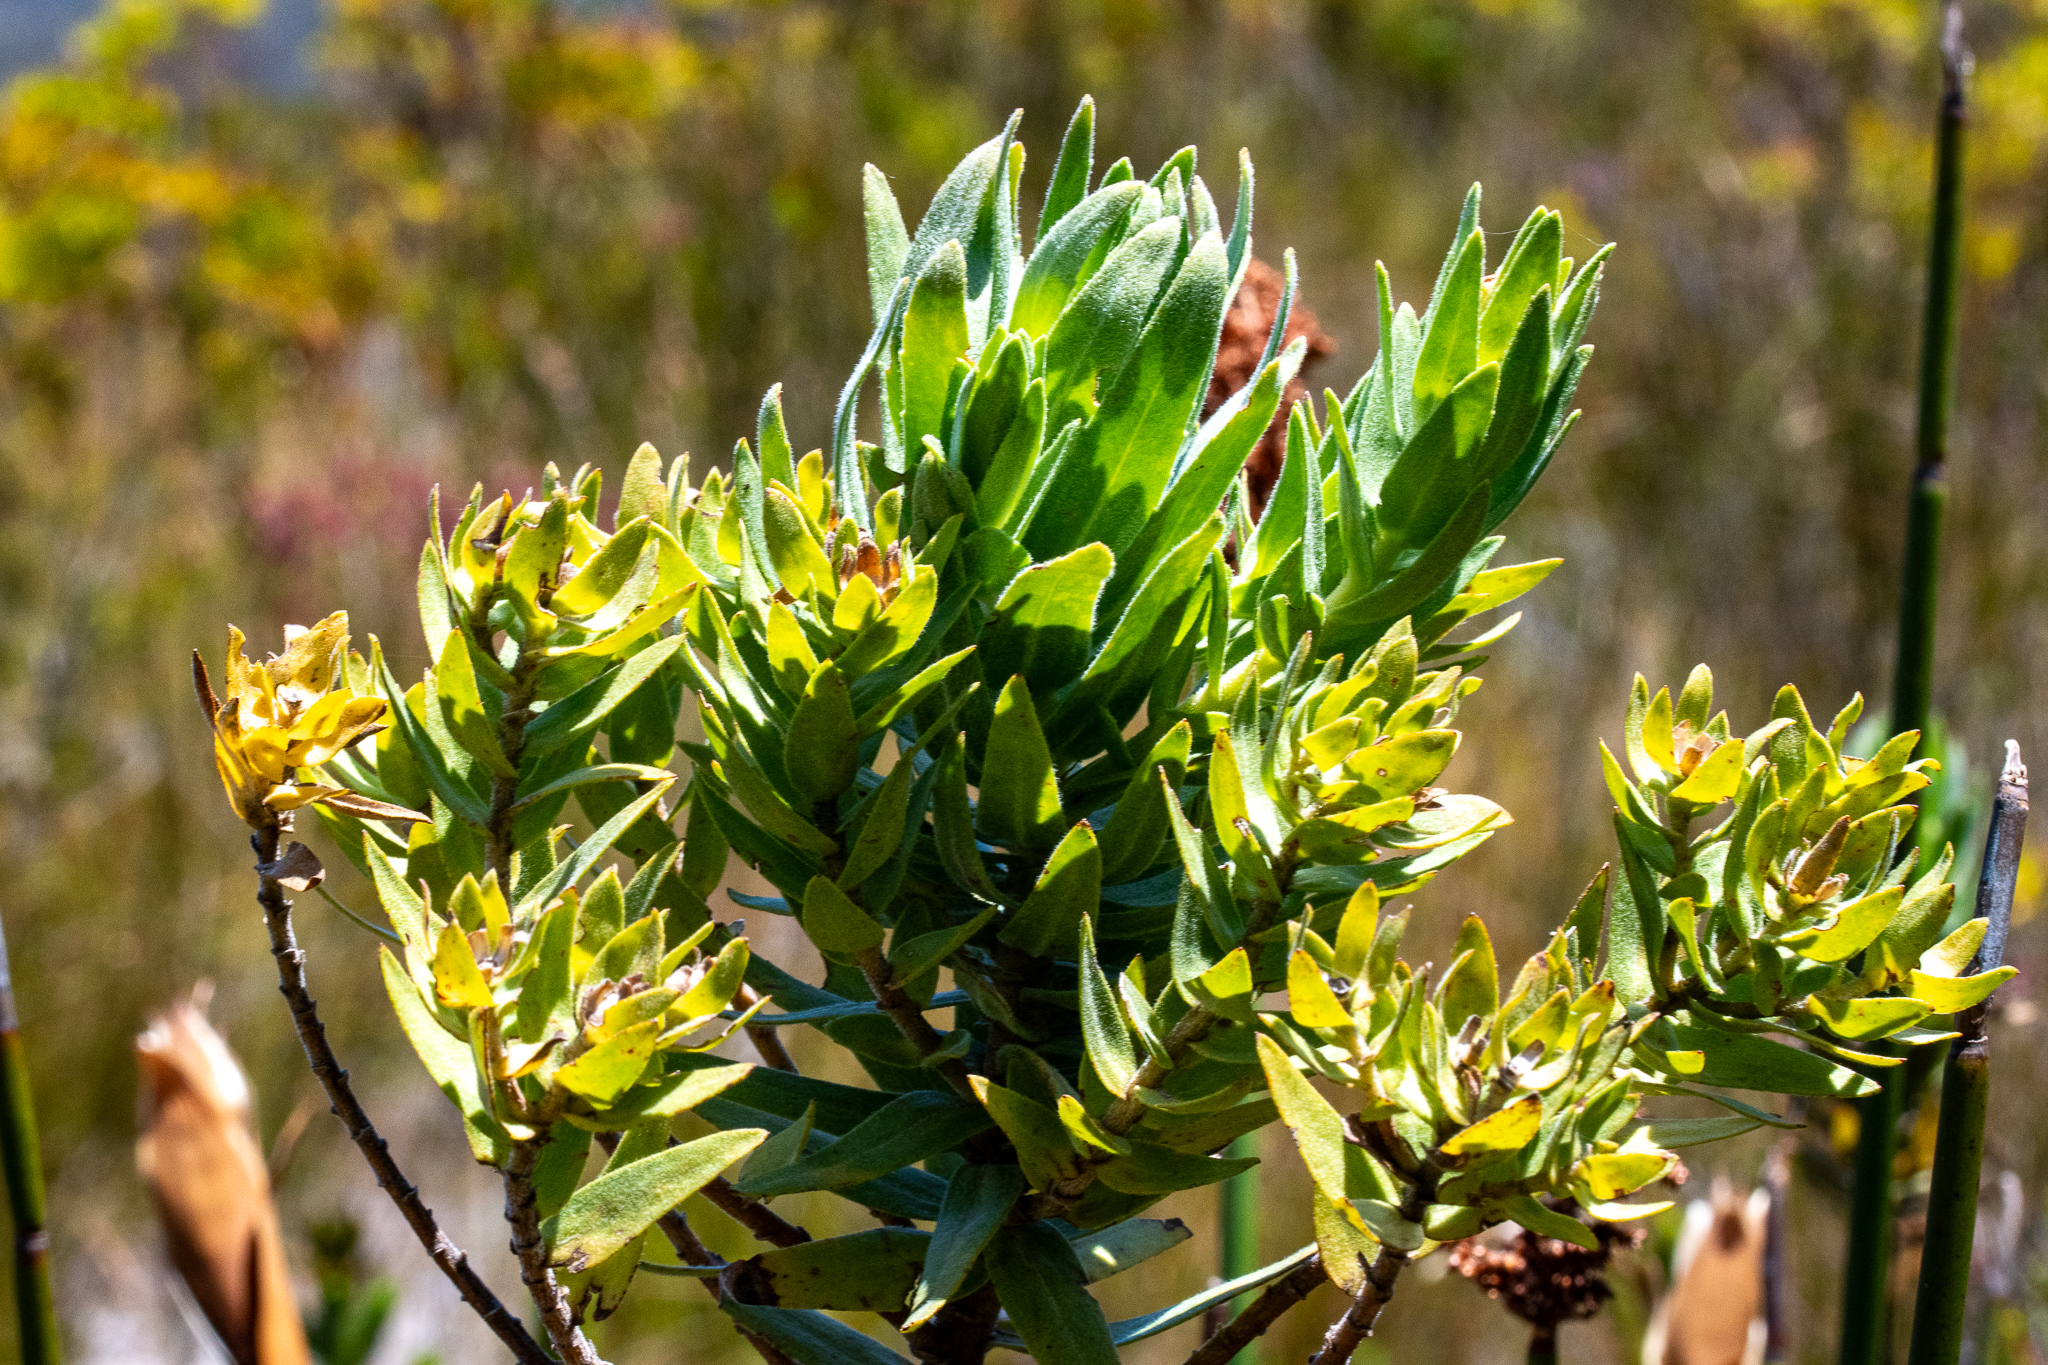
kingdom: Plantae
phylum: Tracheophyta
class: Magnoliopsida
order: Asterales
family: Asteraceae
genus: Osmitopsis
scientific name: Osmitopsis asteriscoides
